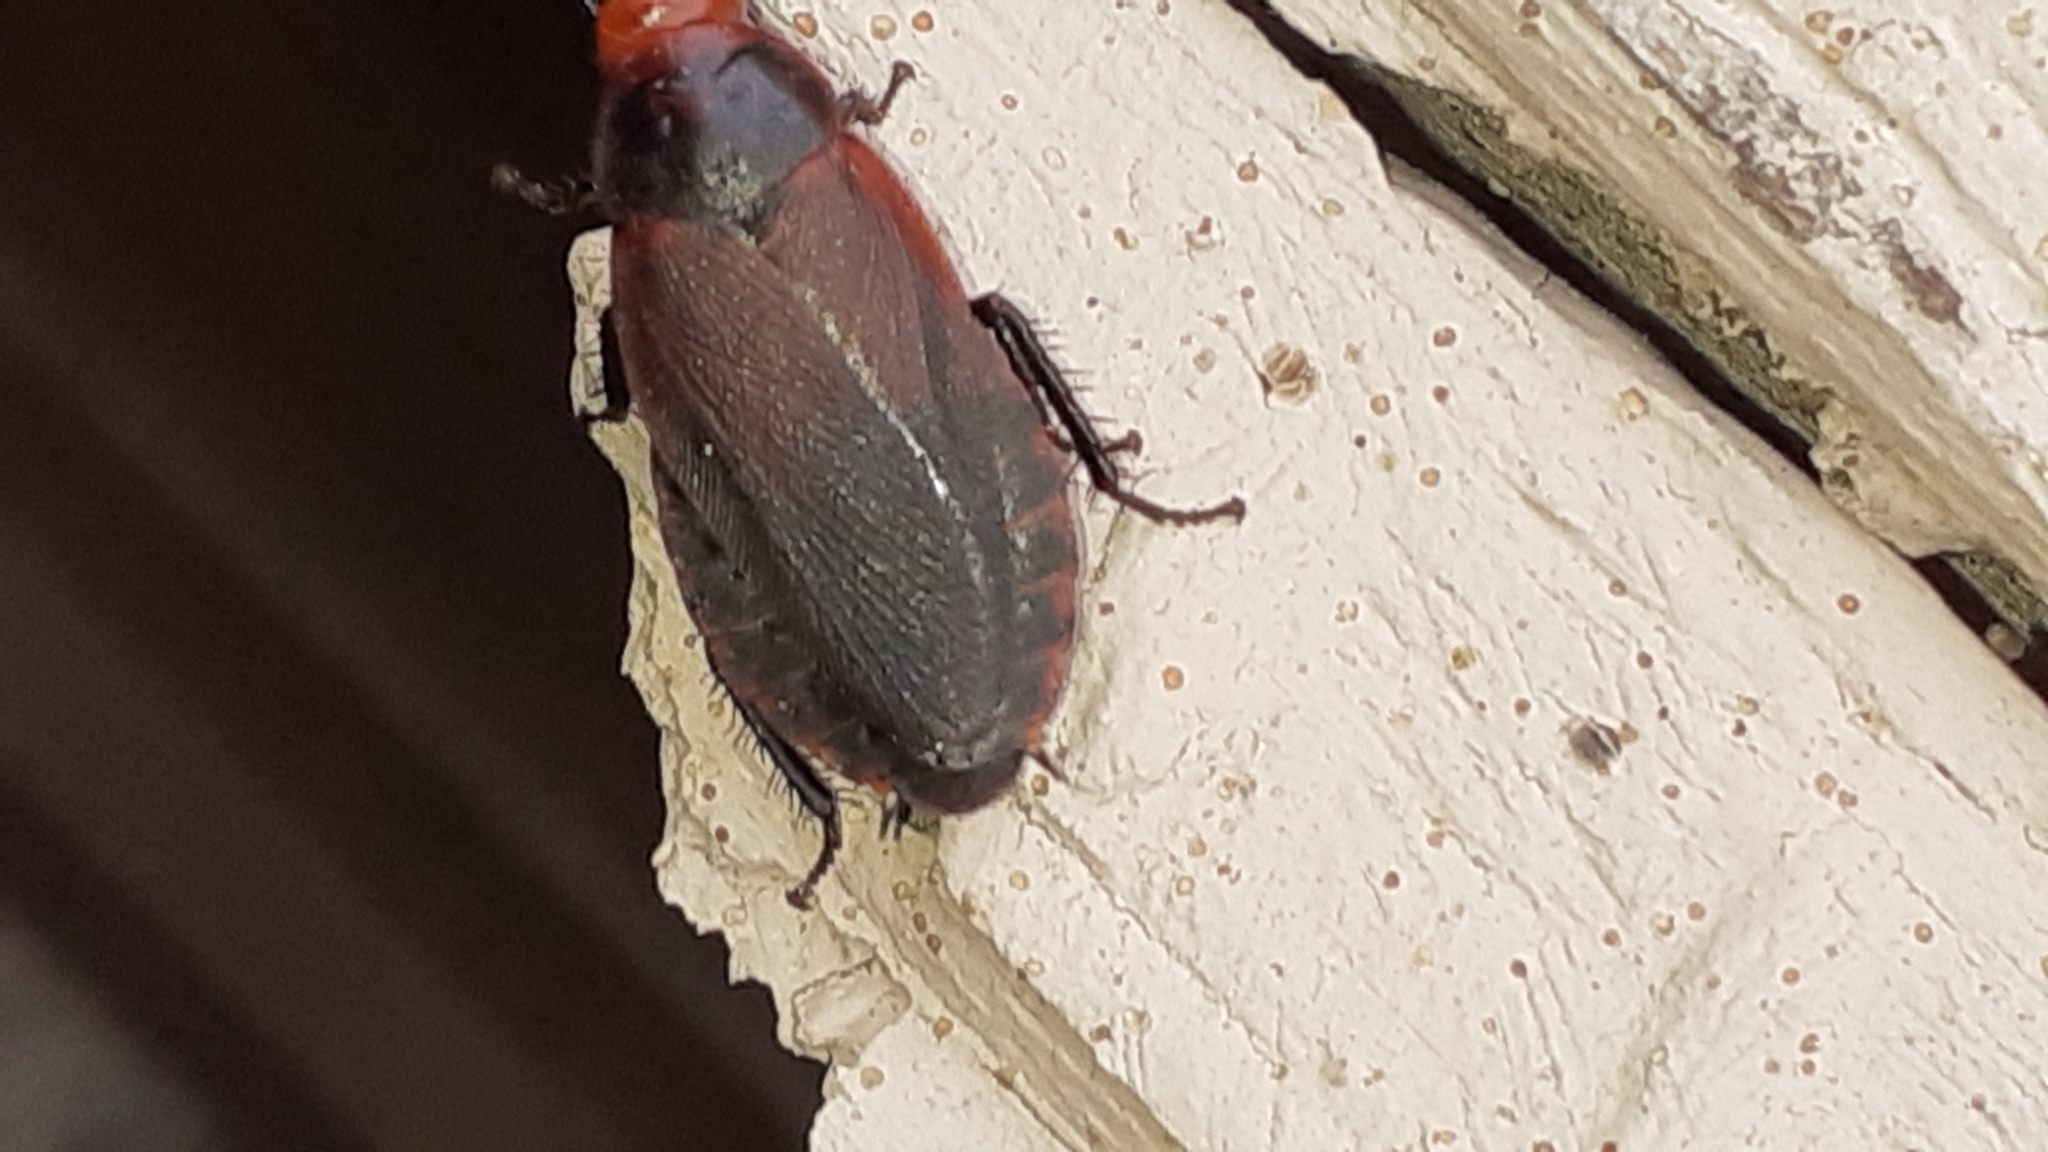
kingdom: Animalia
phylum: Arthropoda
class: Insecta
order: Blattodea
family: Blaberidae
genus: Oxyhaloa
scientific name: Oxyhaloa deusta
